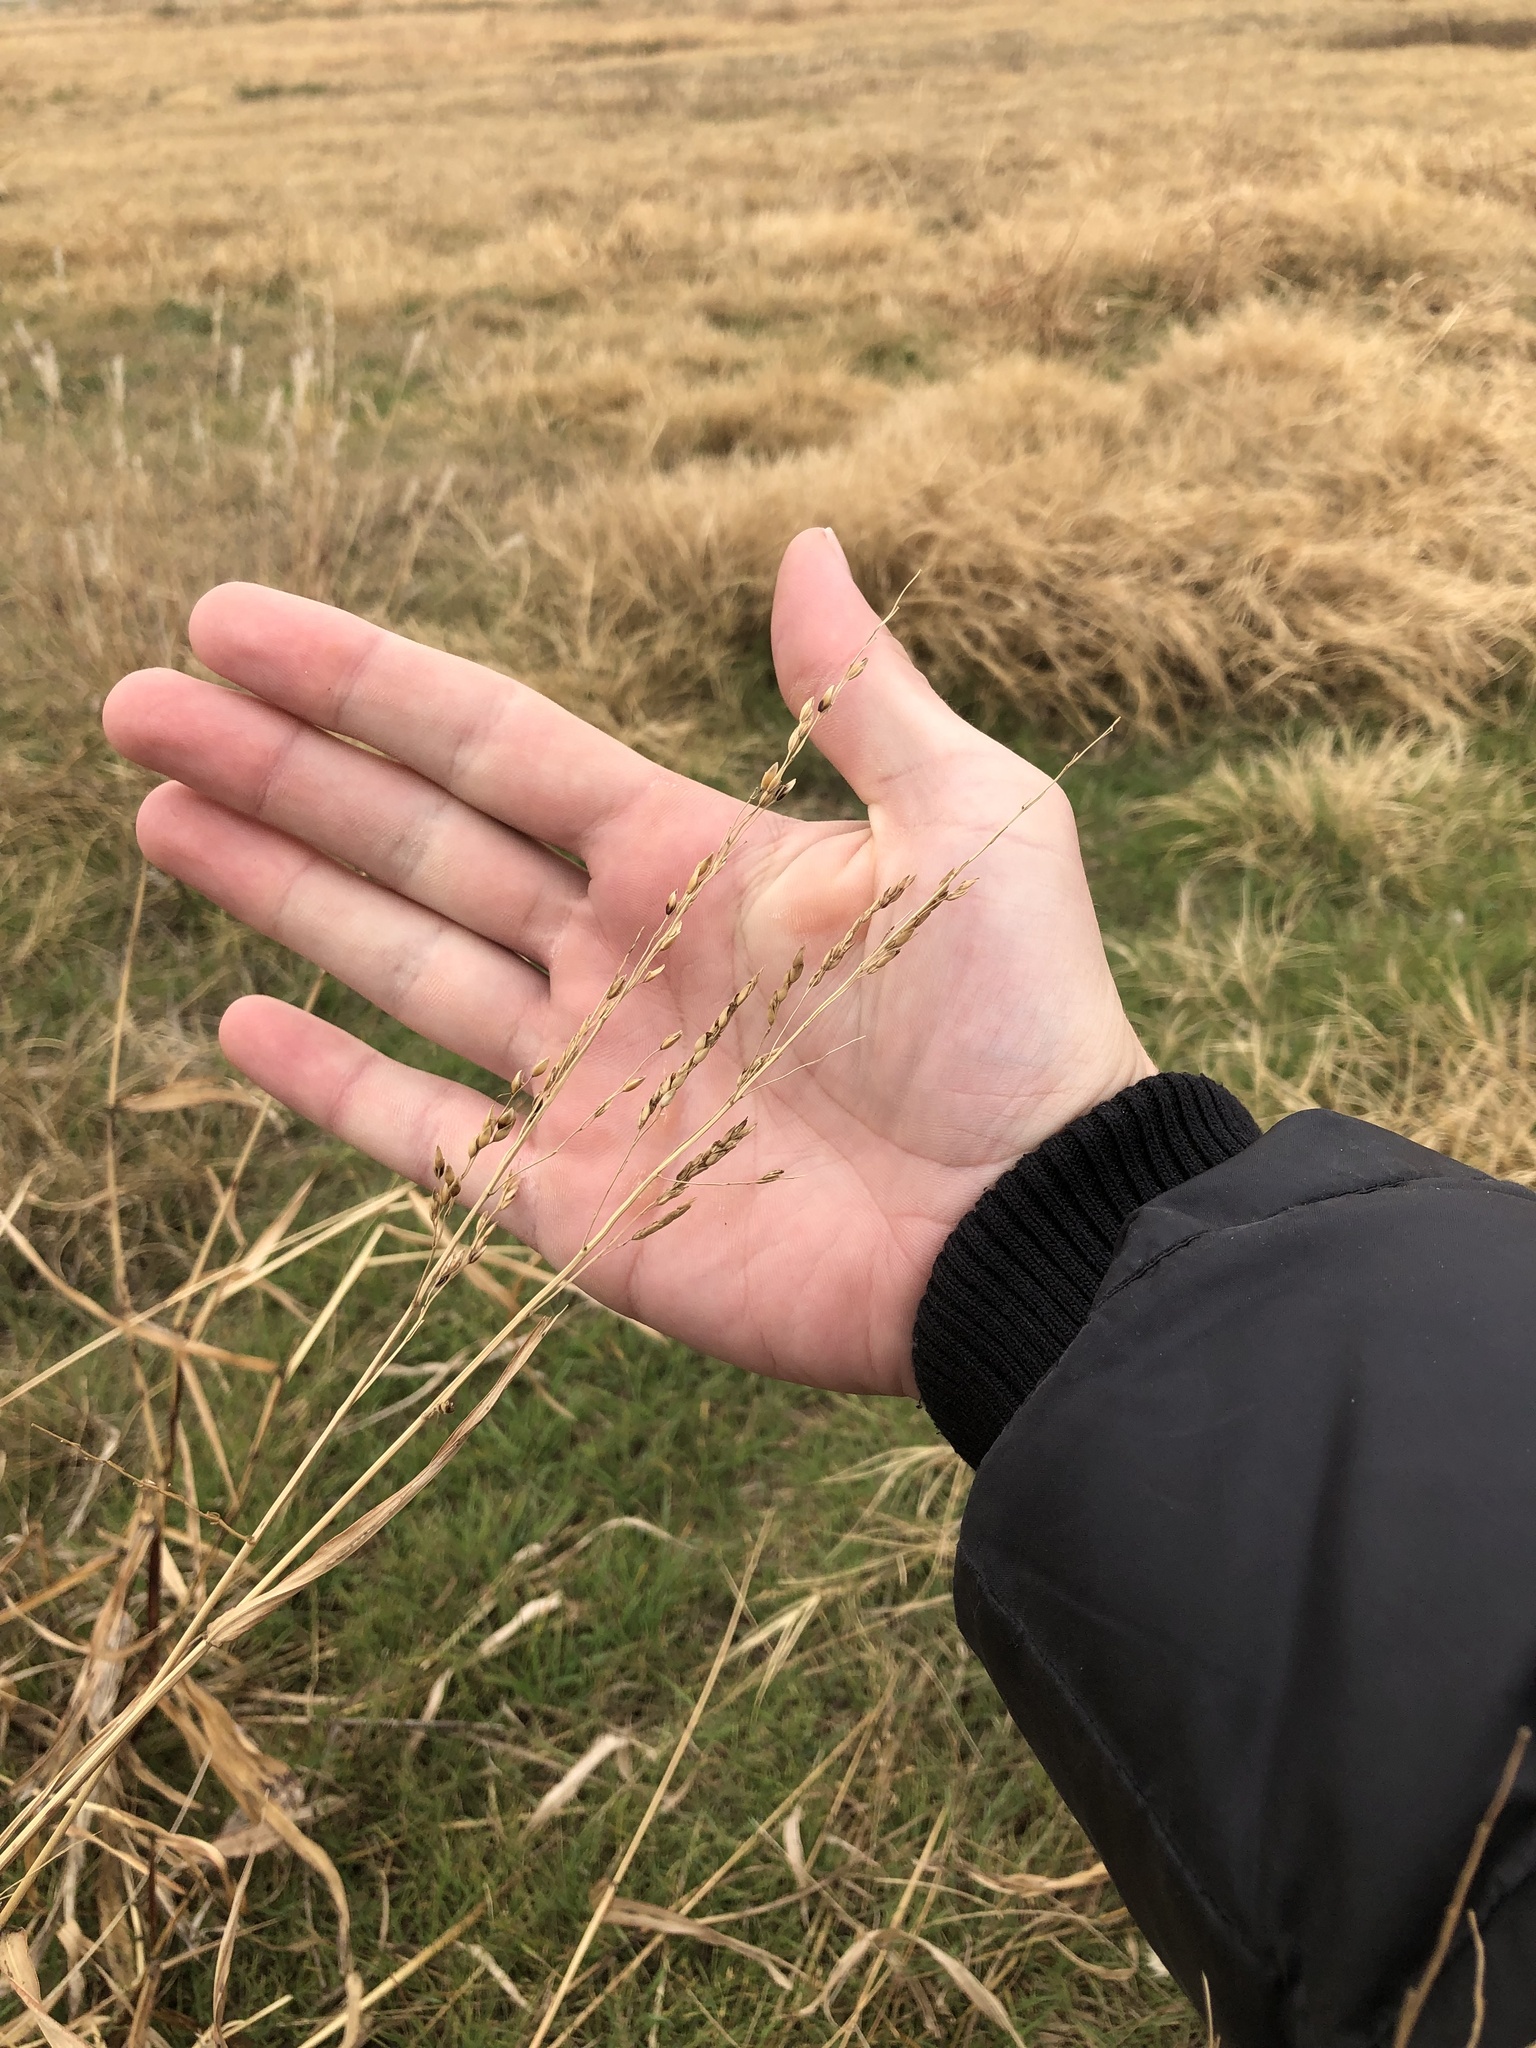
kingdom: Plantae
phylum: Tracheophyta
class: Liliopsida
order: Poales
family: Poaceae
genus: Sorghum
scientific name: Sorghum halepense
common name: Johnson-grass
